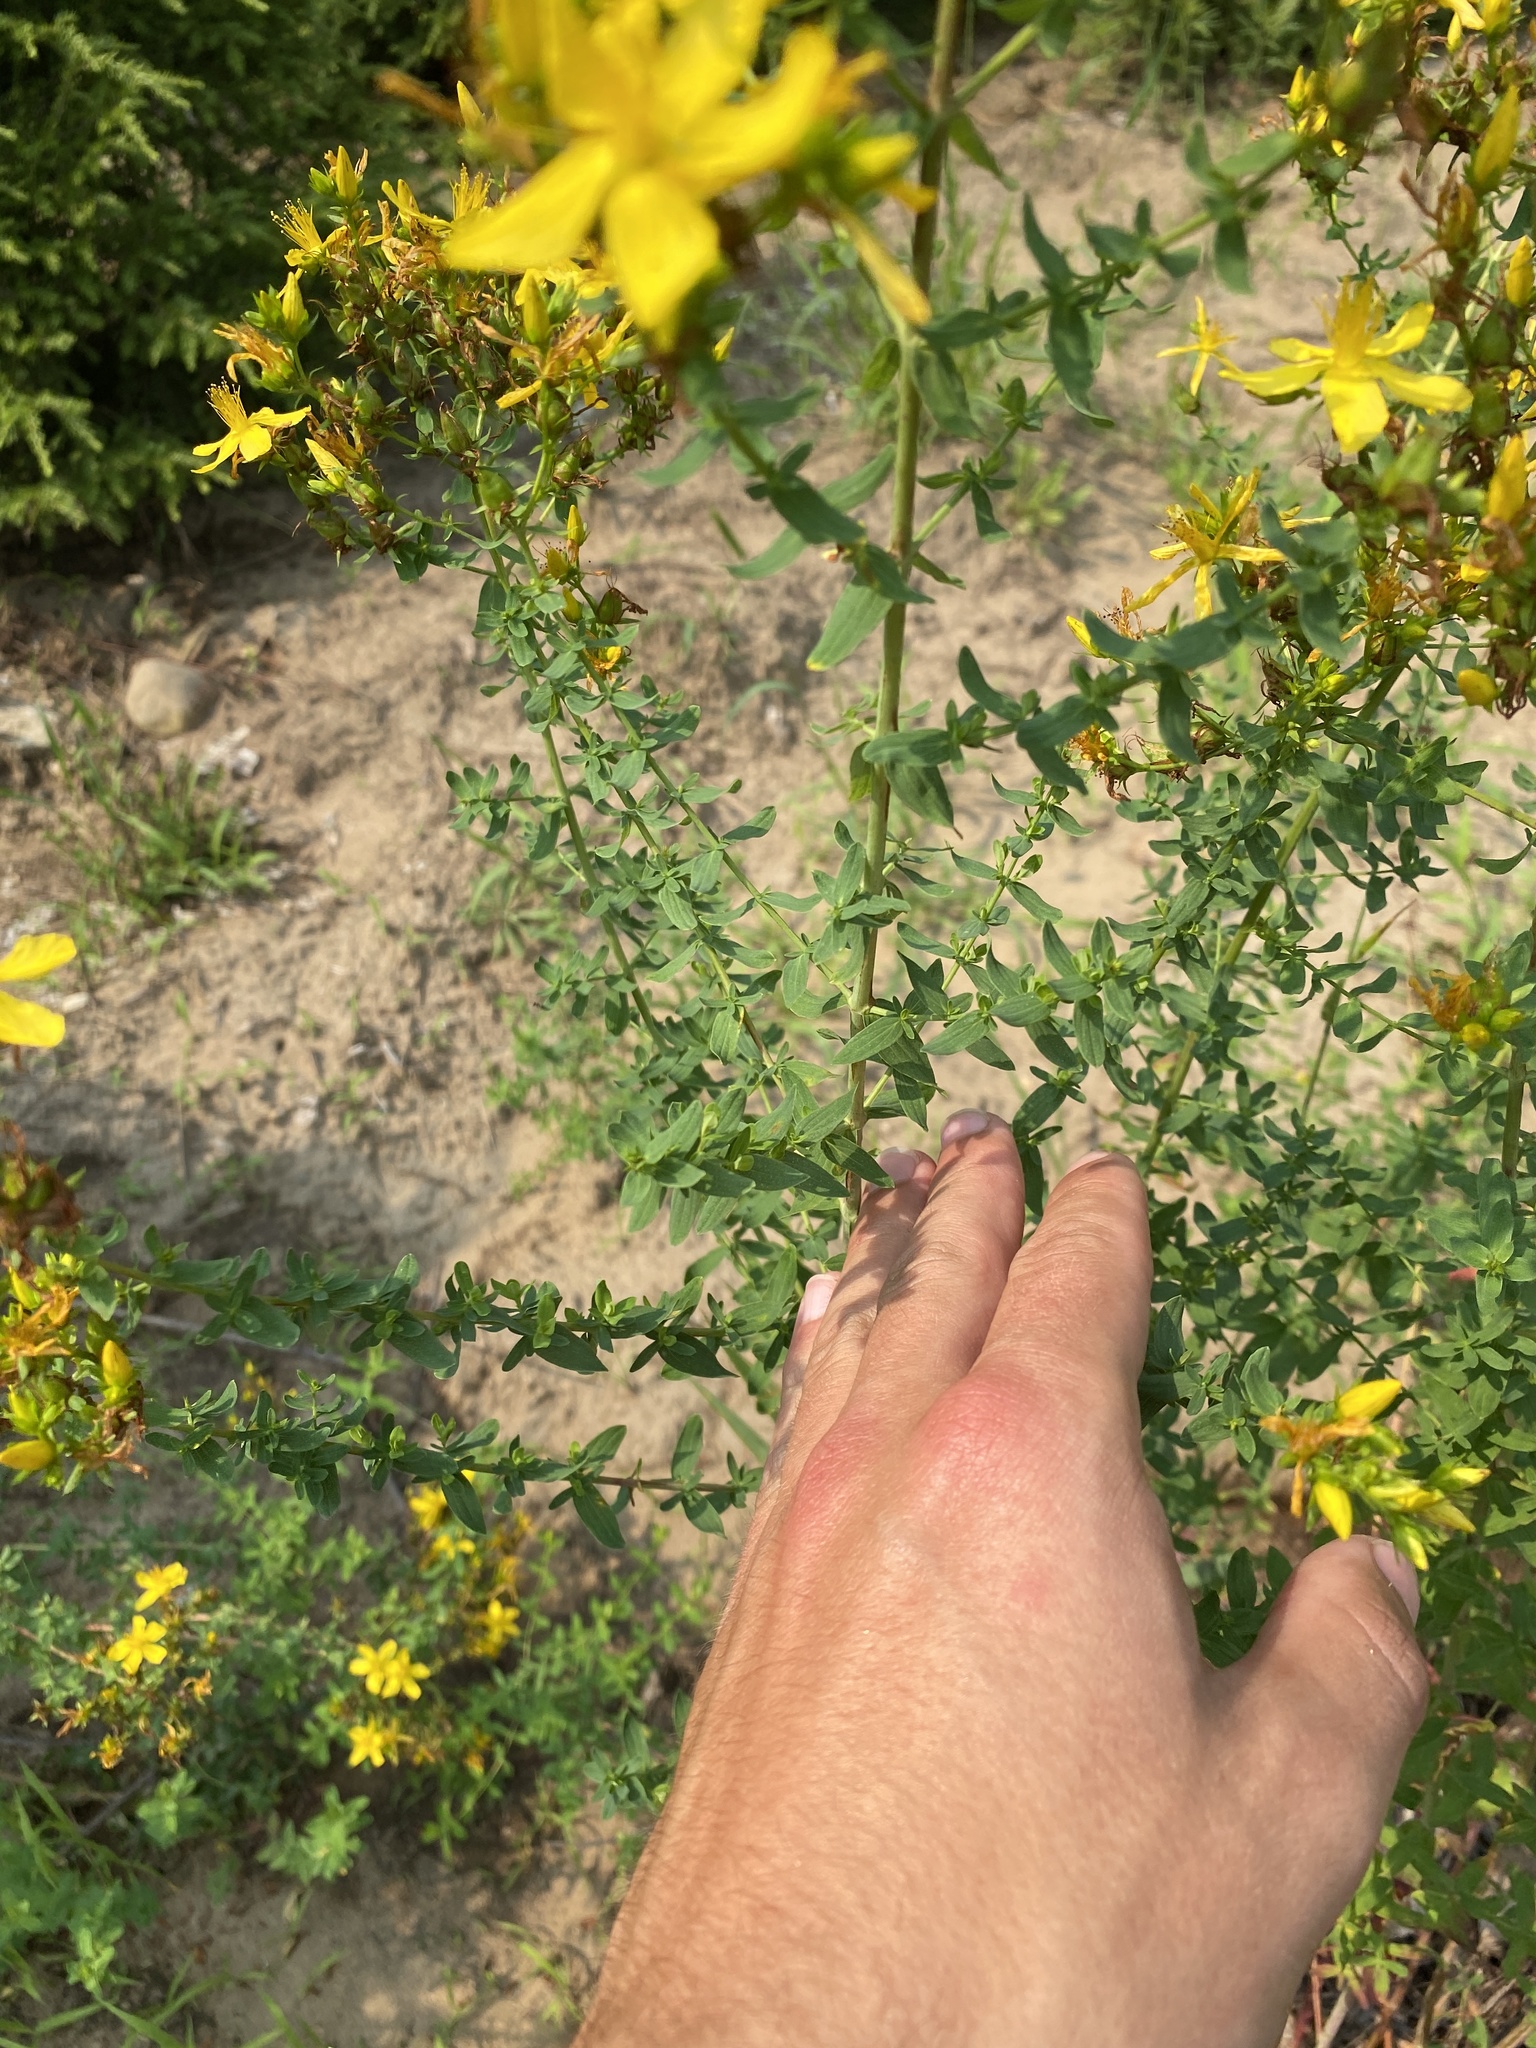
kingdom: Plantae
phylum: Tracheophyta
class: Magnoliopsida
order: Malpighiales
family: Hypericaceae
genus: Hypericum
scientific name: Hypericum perforatum
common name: Common st. johnswort
